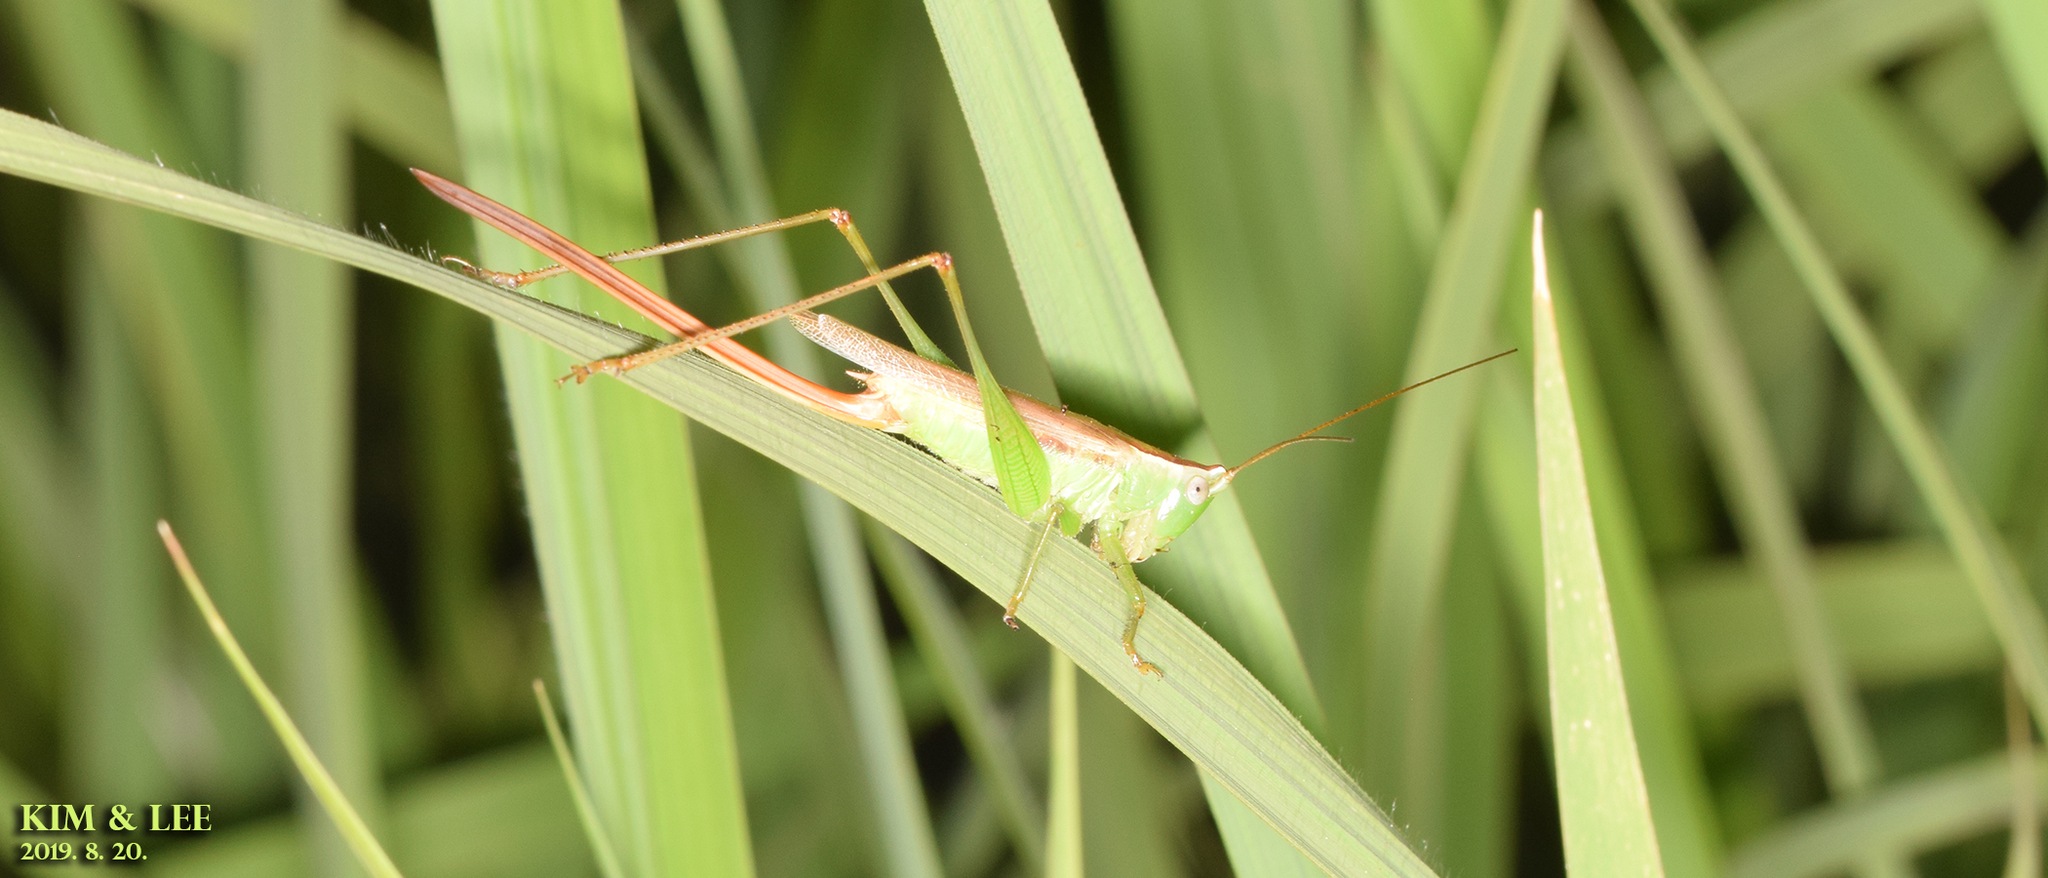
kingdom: Animalia
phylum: Arthropoda
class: Insecta
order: Orthoptera
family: Tettigoniidae
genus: Conocephalus
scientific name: Conocephalus exemptus
